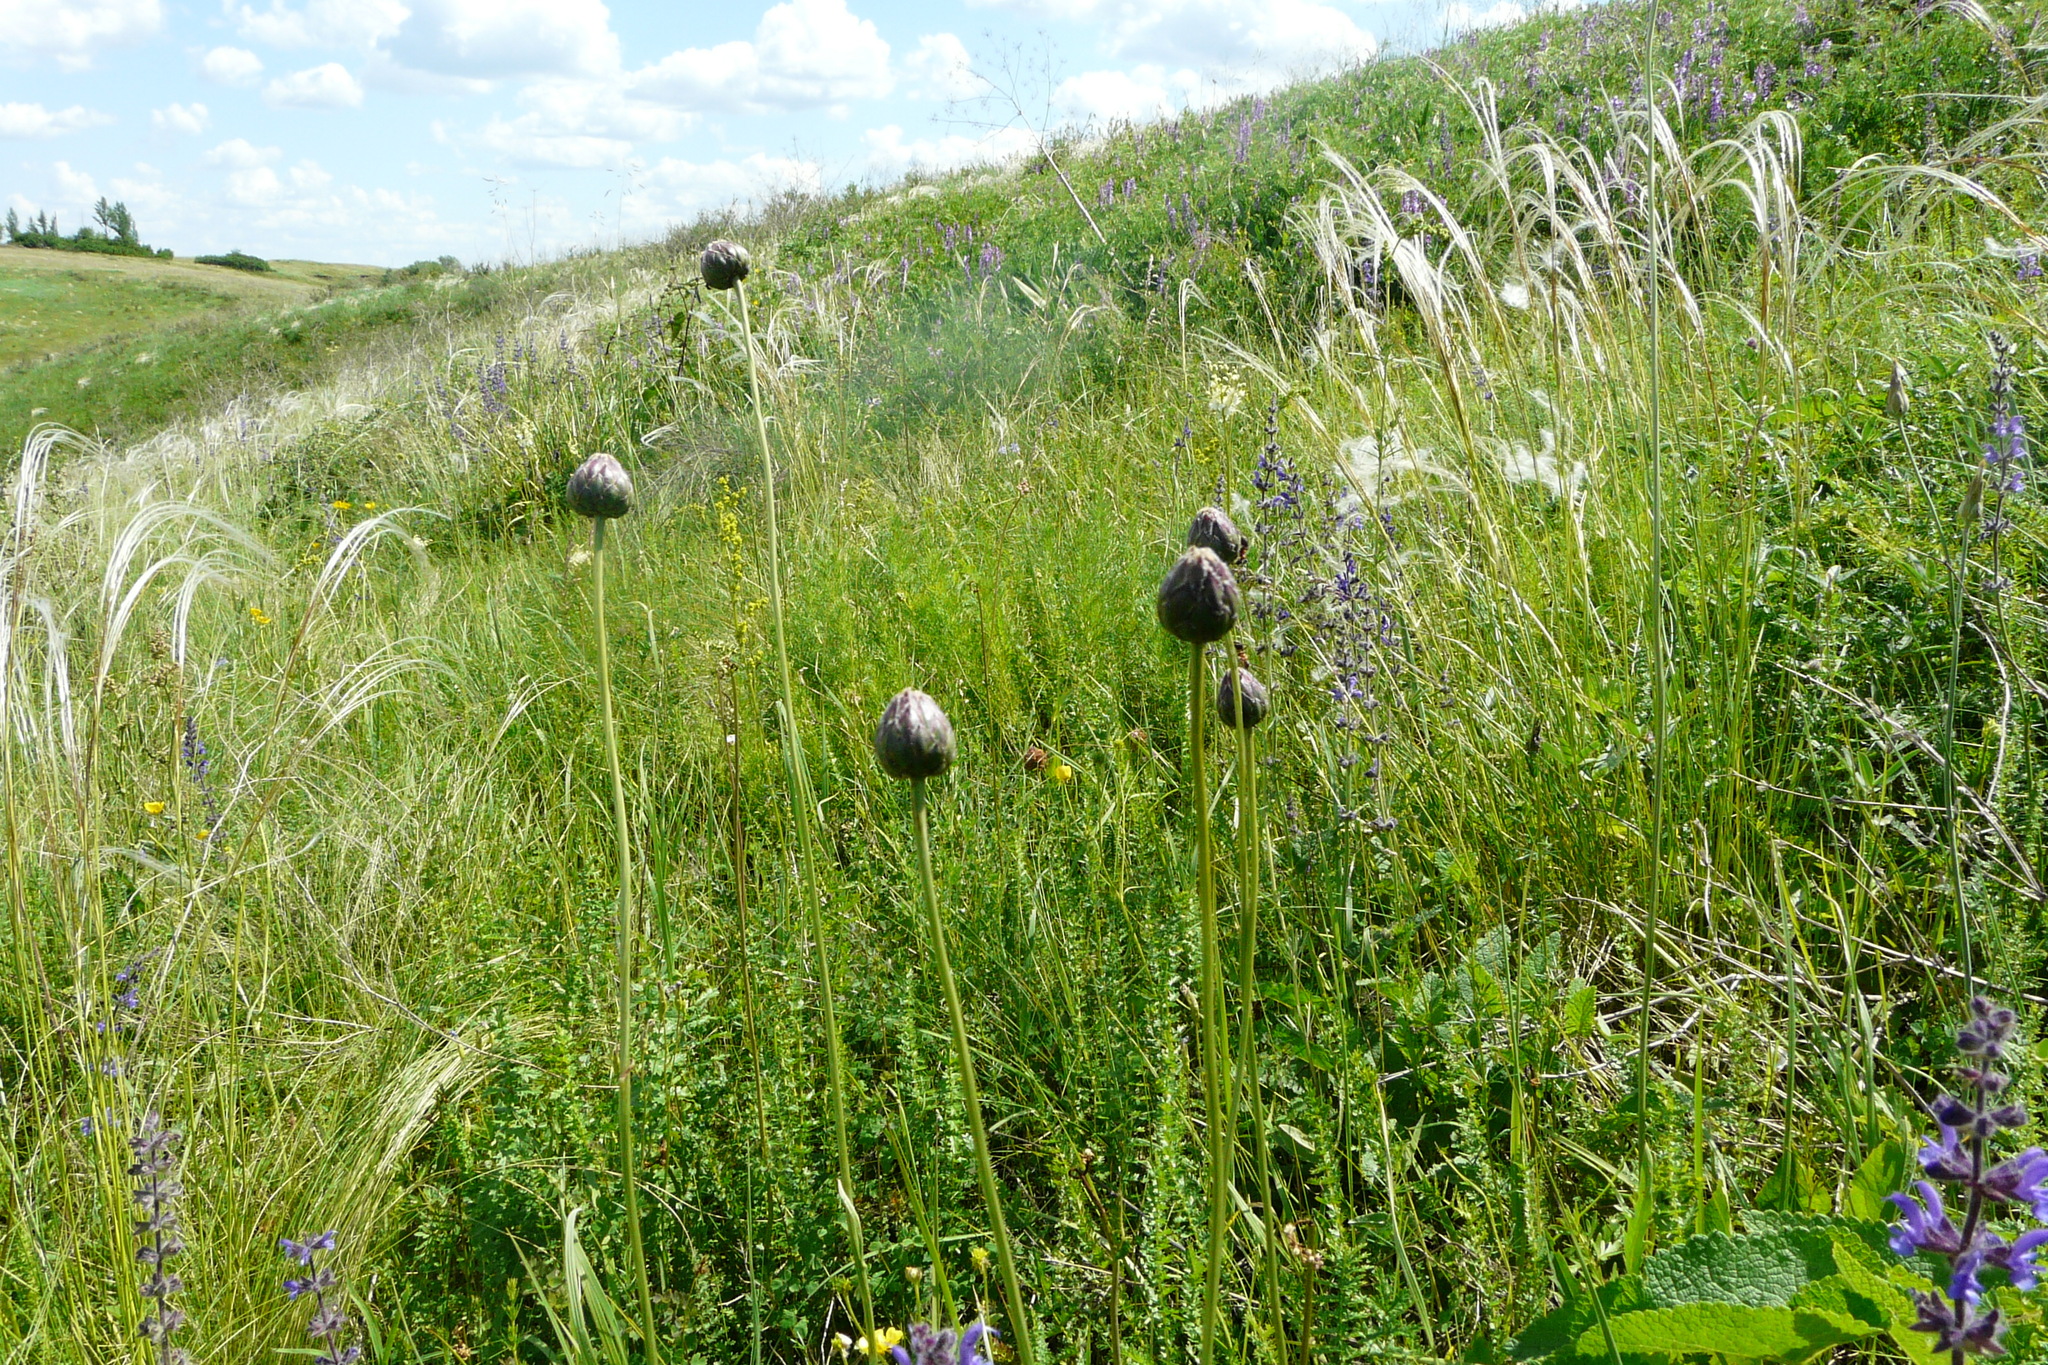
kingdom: Plantae
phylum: Tracheophyta
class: Magnoliopsida
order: Asterales
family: Asteraceae
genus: Klasea
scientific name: Klasea lycopifolia
